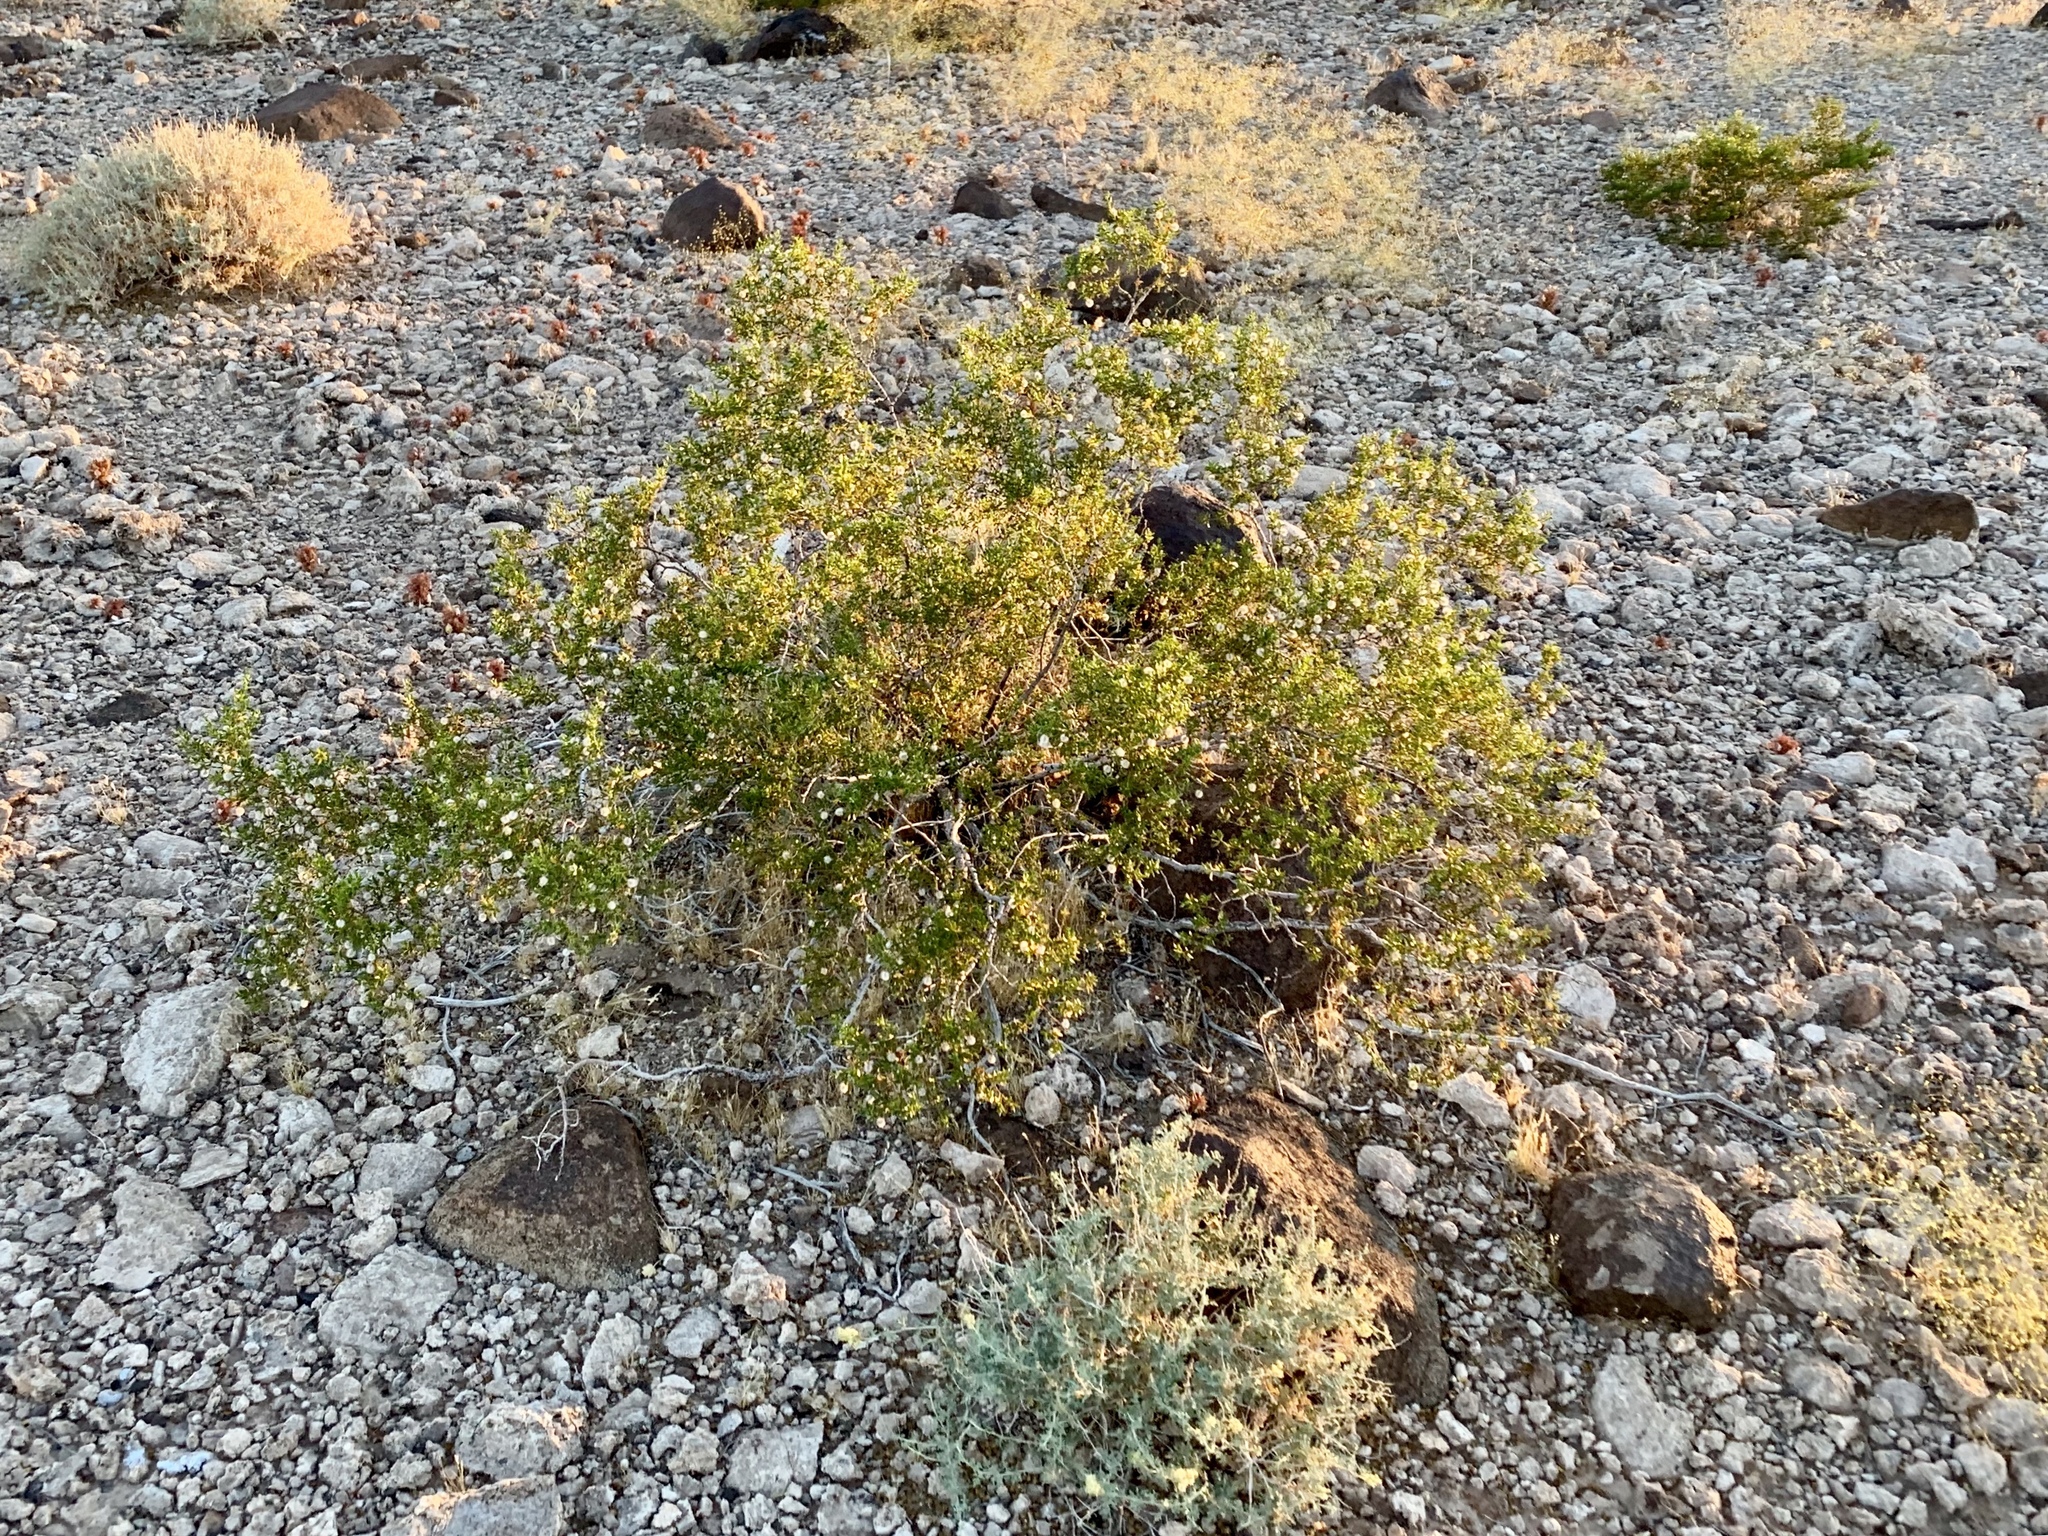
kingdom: Plantae
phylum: Tracheophyta
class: Magnoliopsida
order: Zygophyllales
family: Zygophyllaceae
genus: Larrea
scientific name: Larrea tridentata
